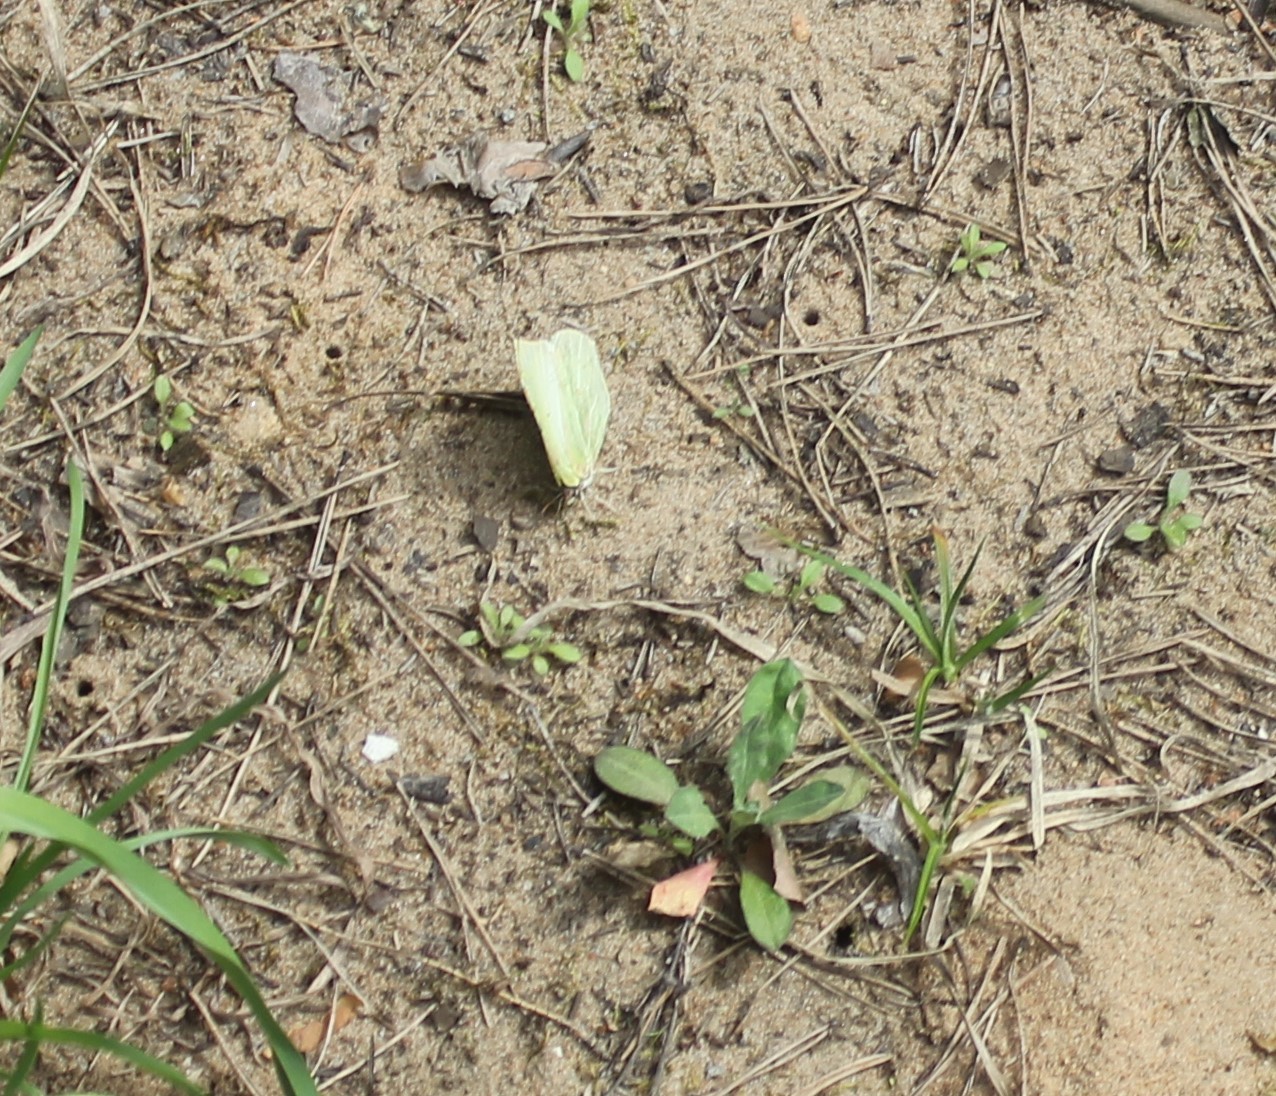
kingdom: Animalia
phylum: Arthropoda
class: Insecta
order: Lepidoptera
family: Pieridae
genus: Gonepteryx
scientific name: Gonepteryx rhamni
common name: Brimstone
